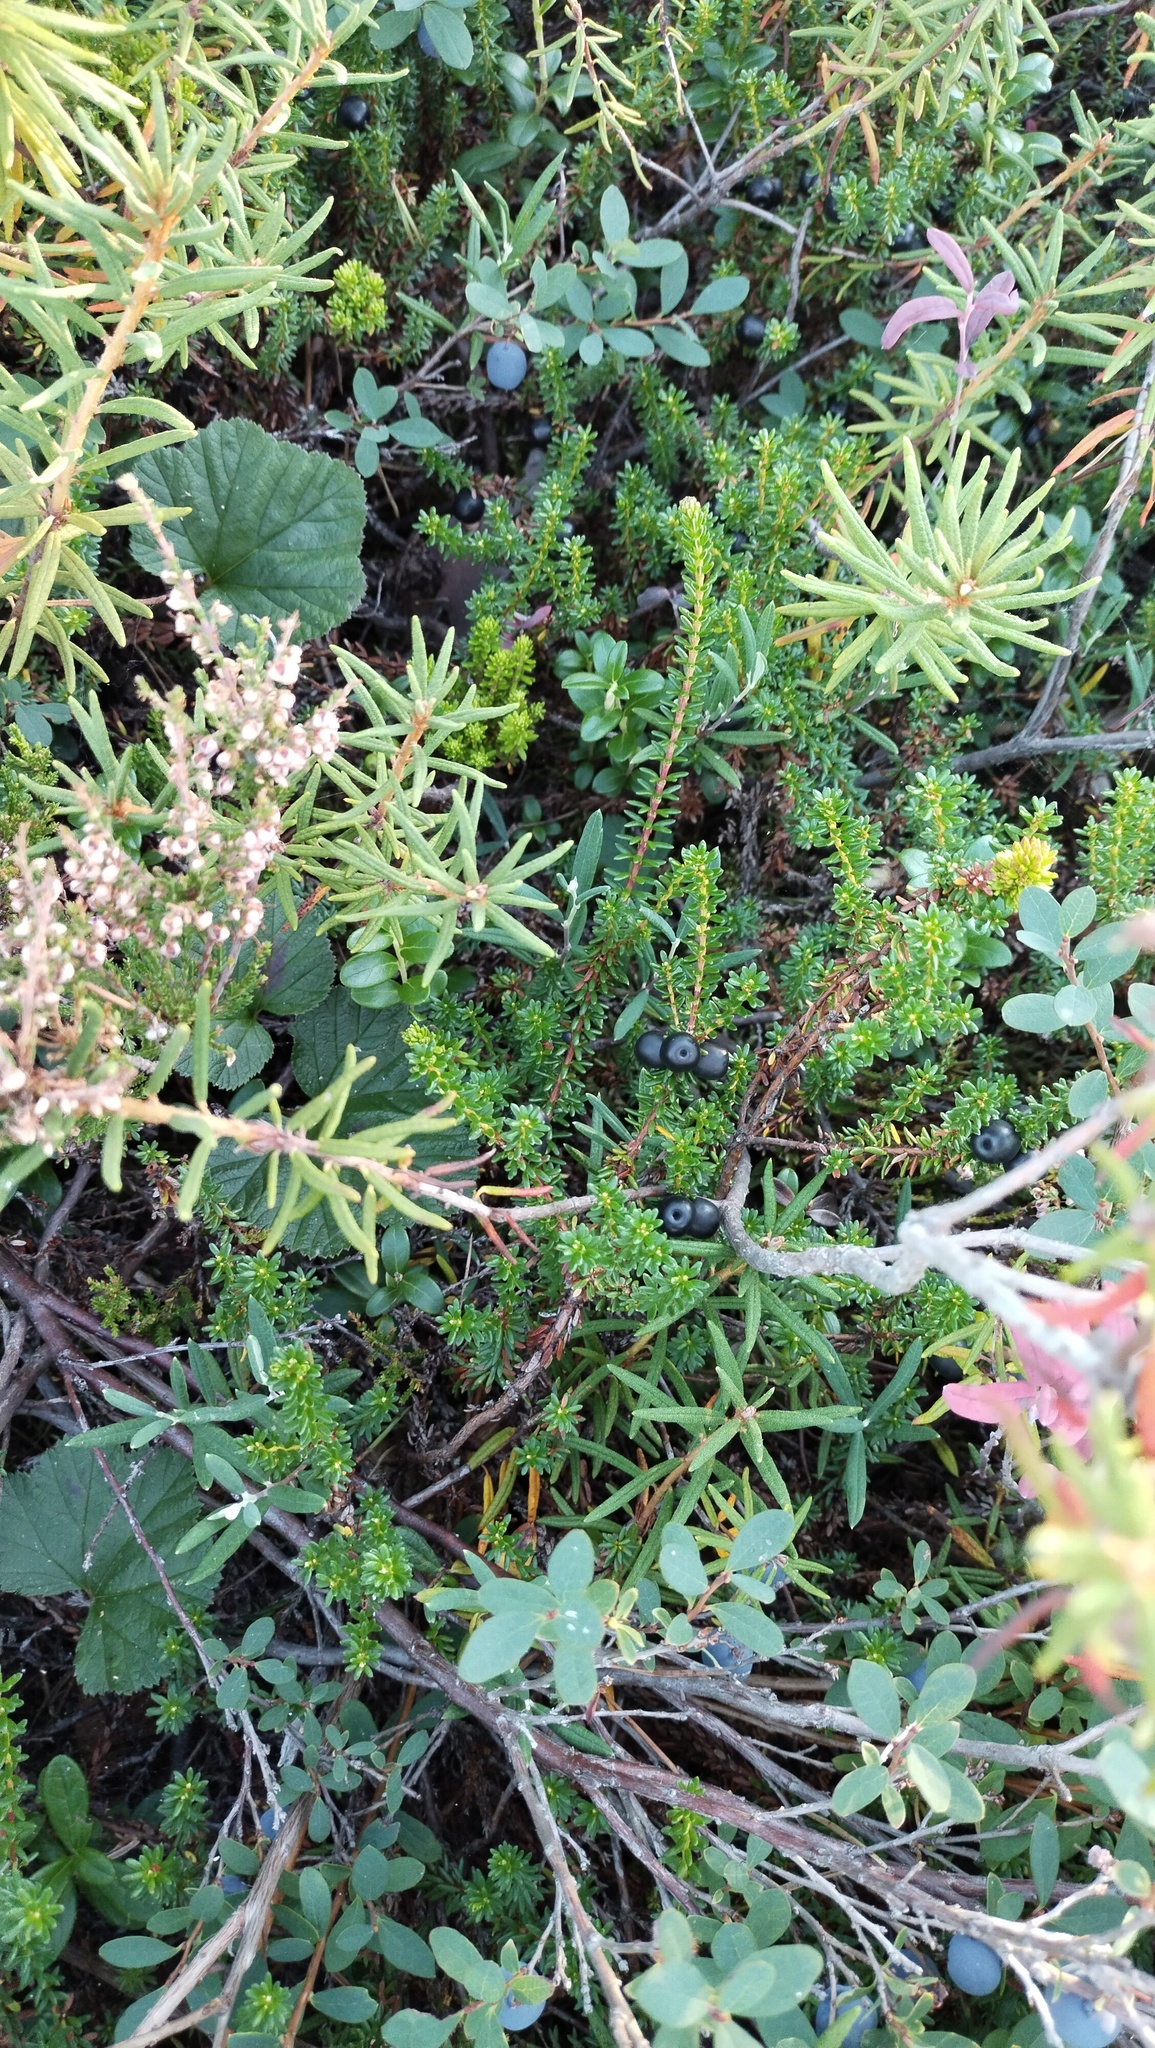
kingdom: Plantae
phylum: Tracheophyta
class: Magnoliopsida
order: Ericales
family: Ericaceae
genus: Empetrum
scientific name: Empetrum nigrum
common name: Black crowberry
